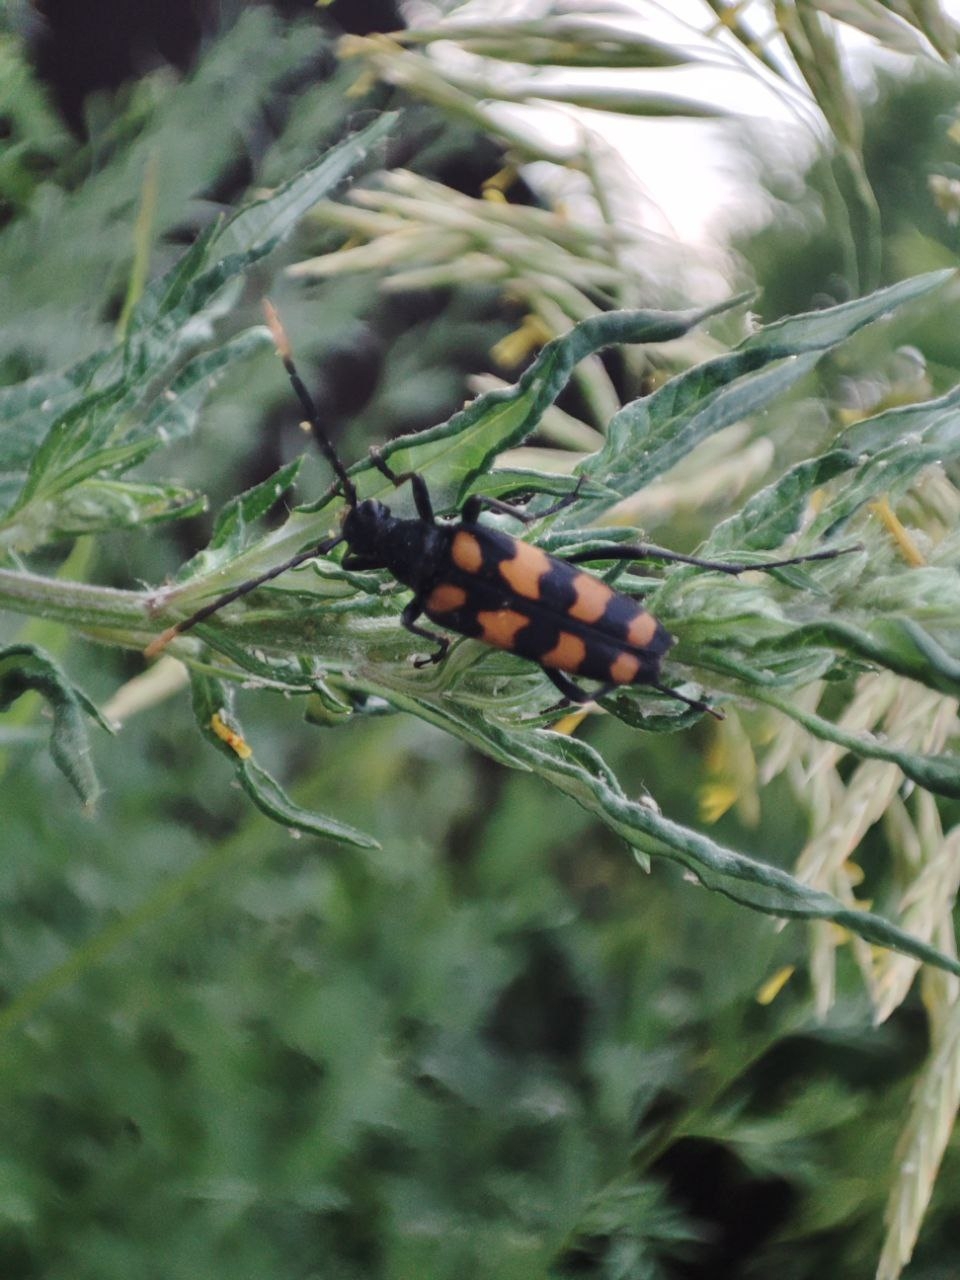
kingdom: Animalia
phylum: Arthropoda
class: Insecta
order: Coleoptera
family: Cerambycidae
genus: Leptura
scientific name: Leptura quadrifasciata
